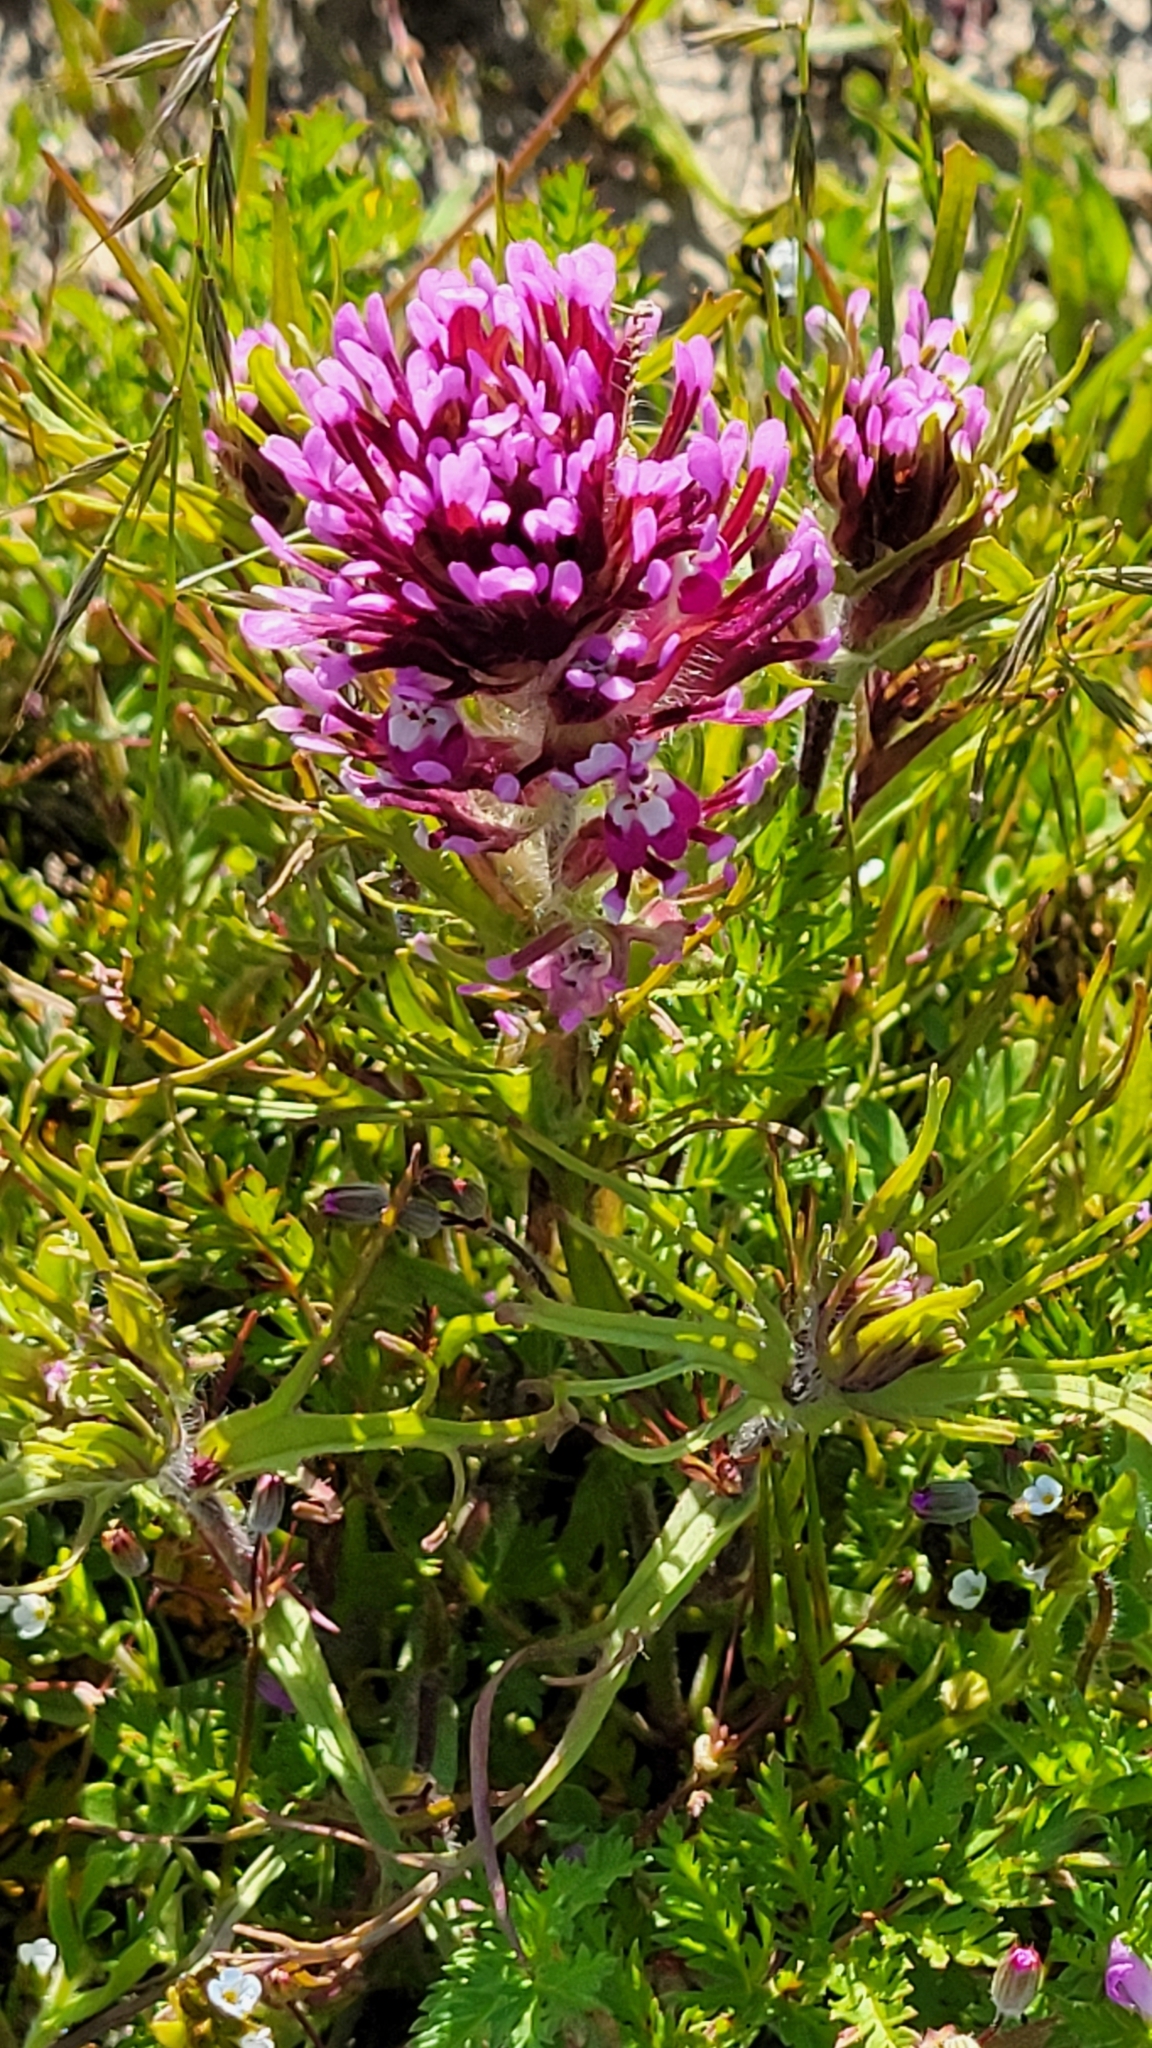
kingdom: Plantae
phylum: Tracheophyta
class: Magnoliopsida
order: Lamiales
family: Orobanchaceae
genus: Castilleja
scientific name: Castilleja exserta
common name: Purple owl-clover
